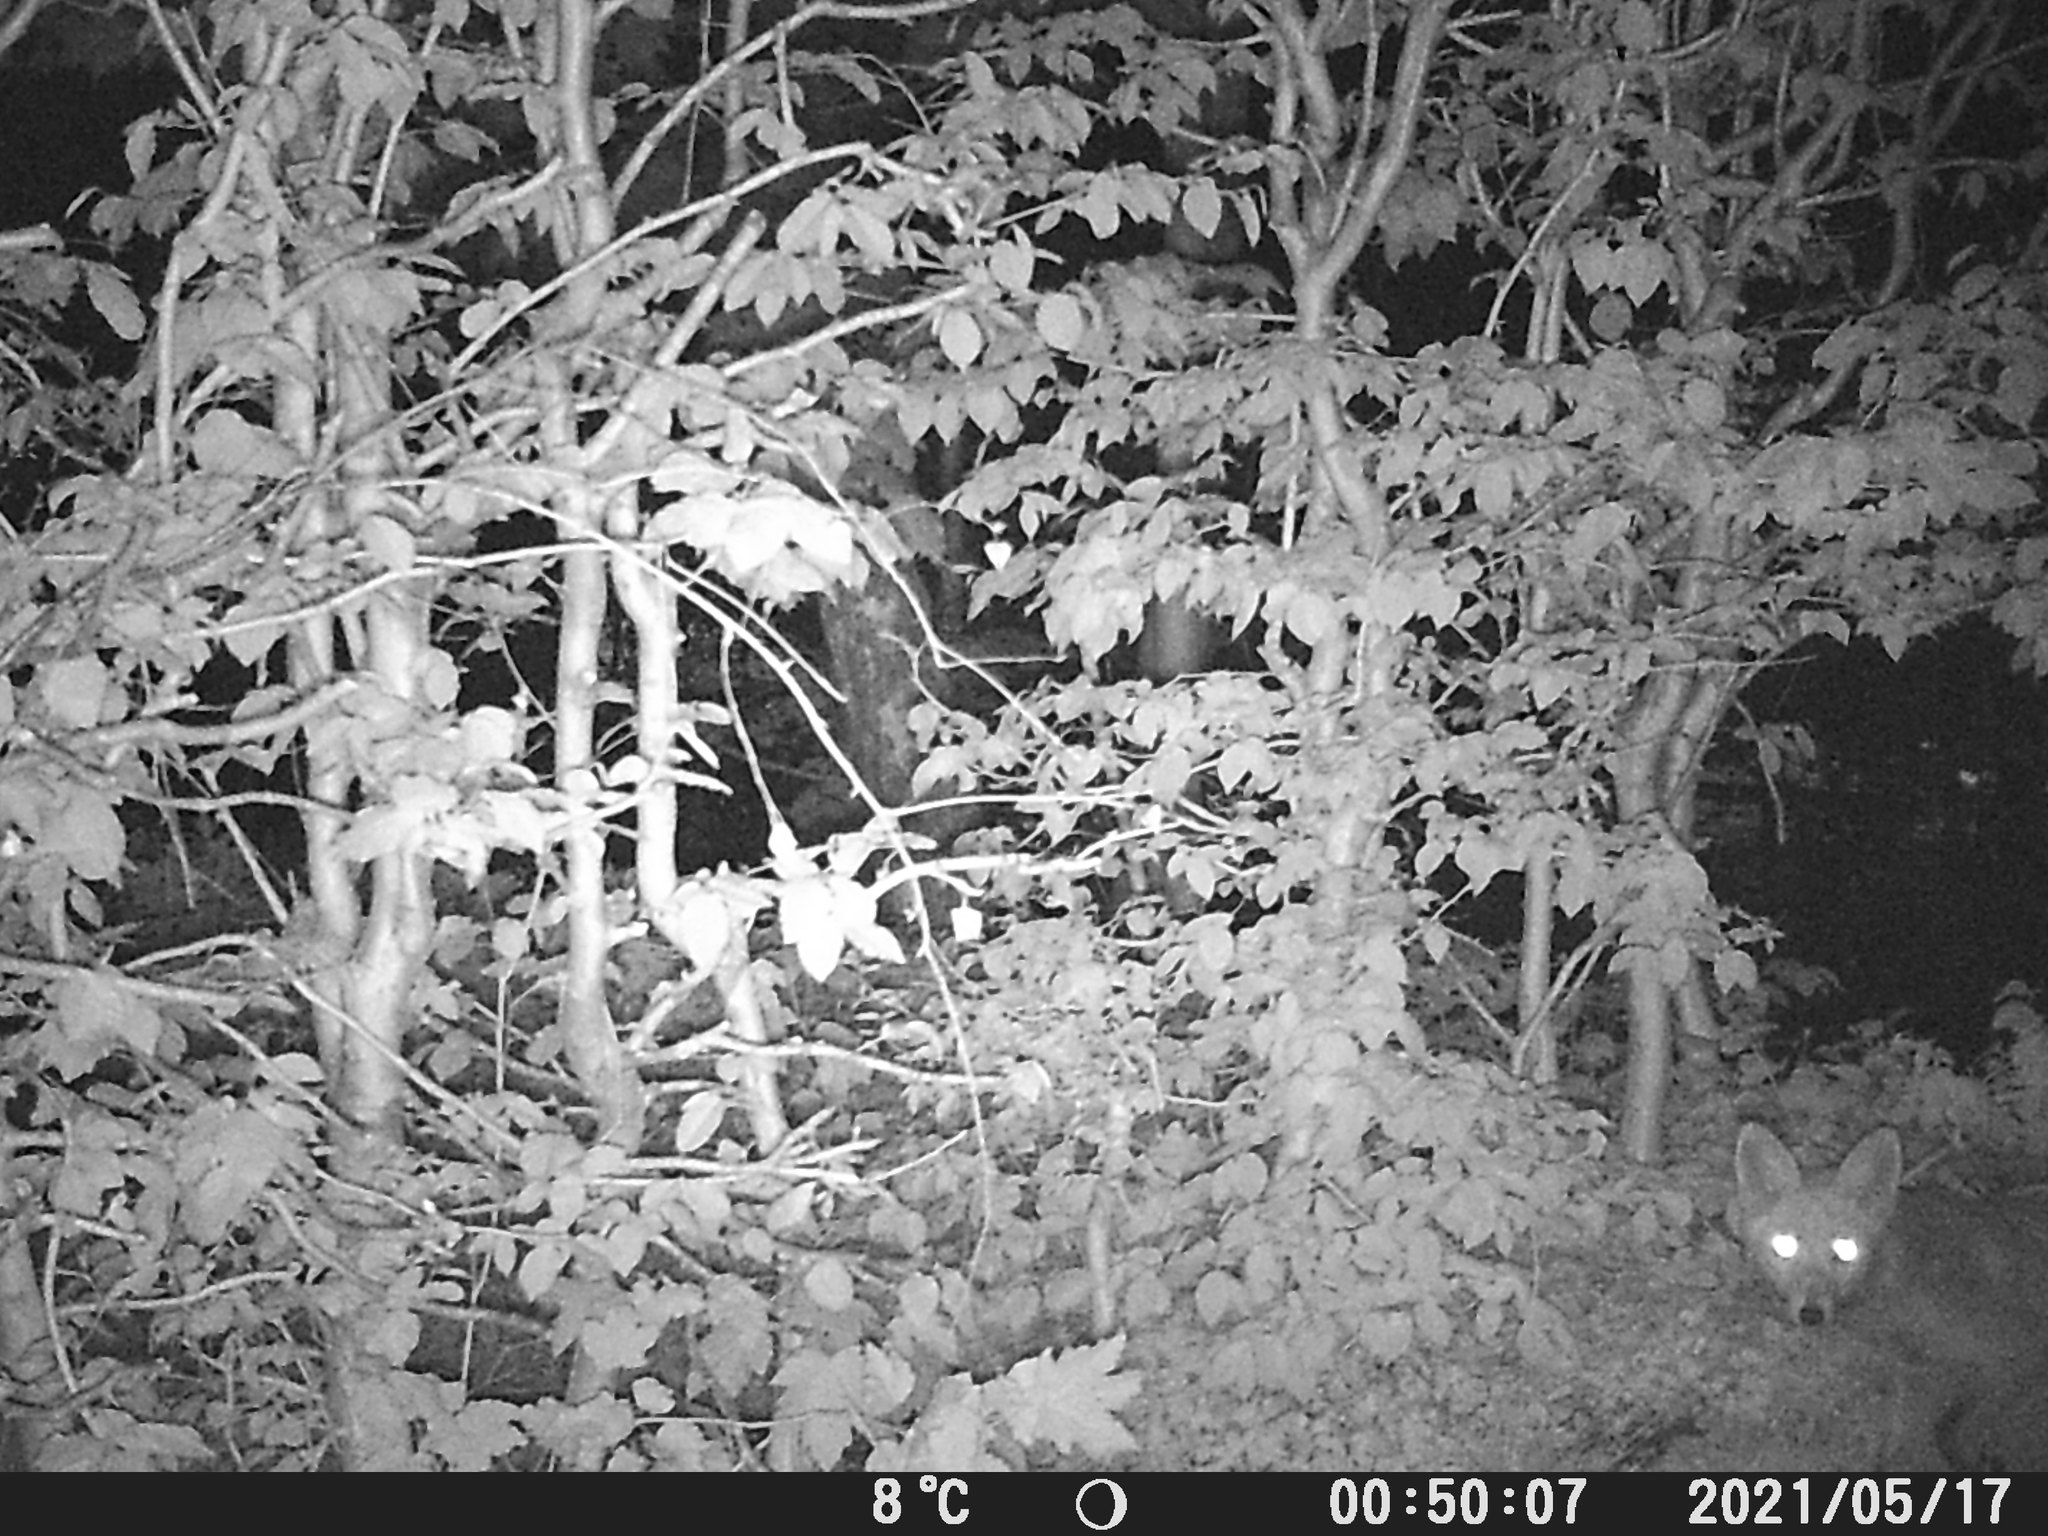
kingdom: Animalia
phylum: Chordata
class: Mammalia
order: Carnivora
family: Canidae
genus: Vulpes
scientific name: Vulpes vulpes
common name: Red fox
